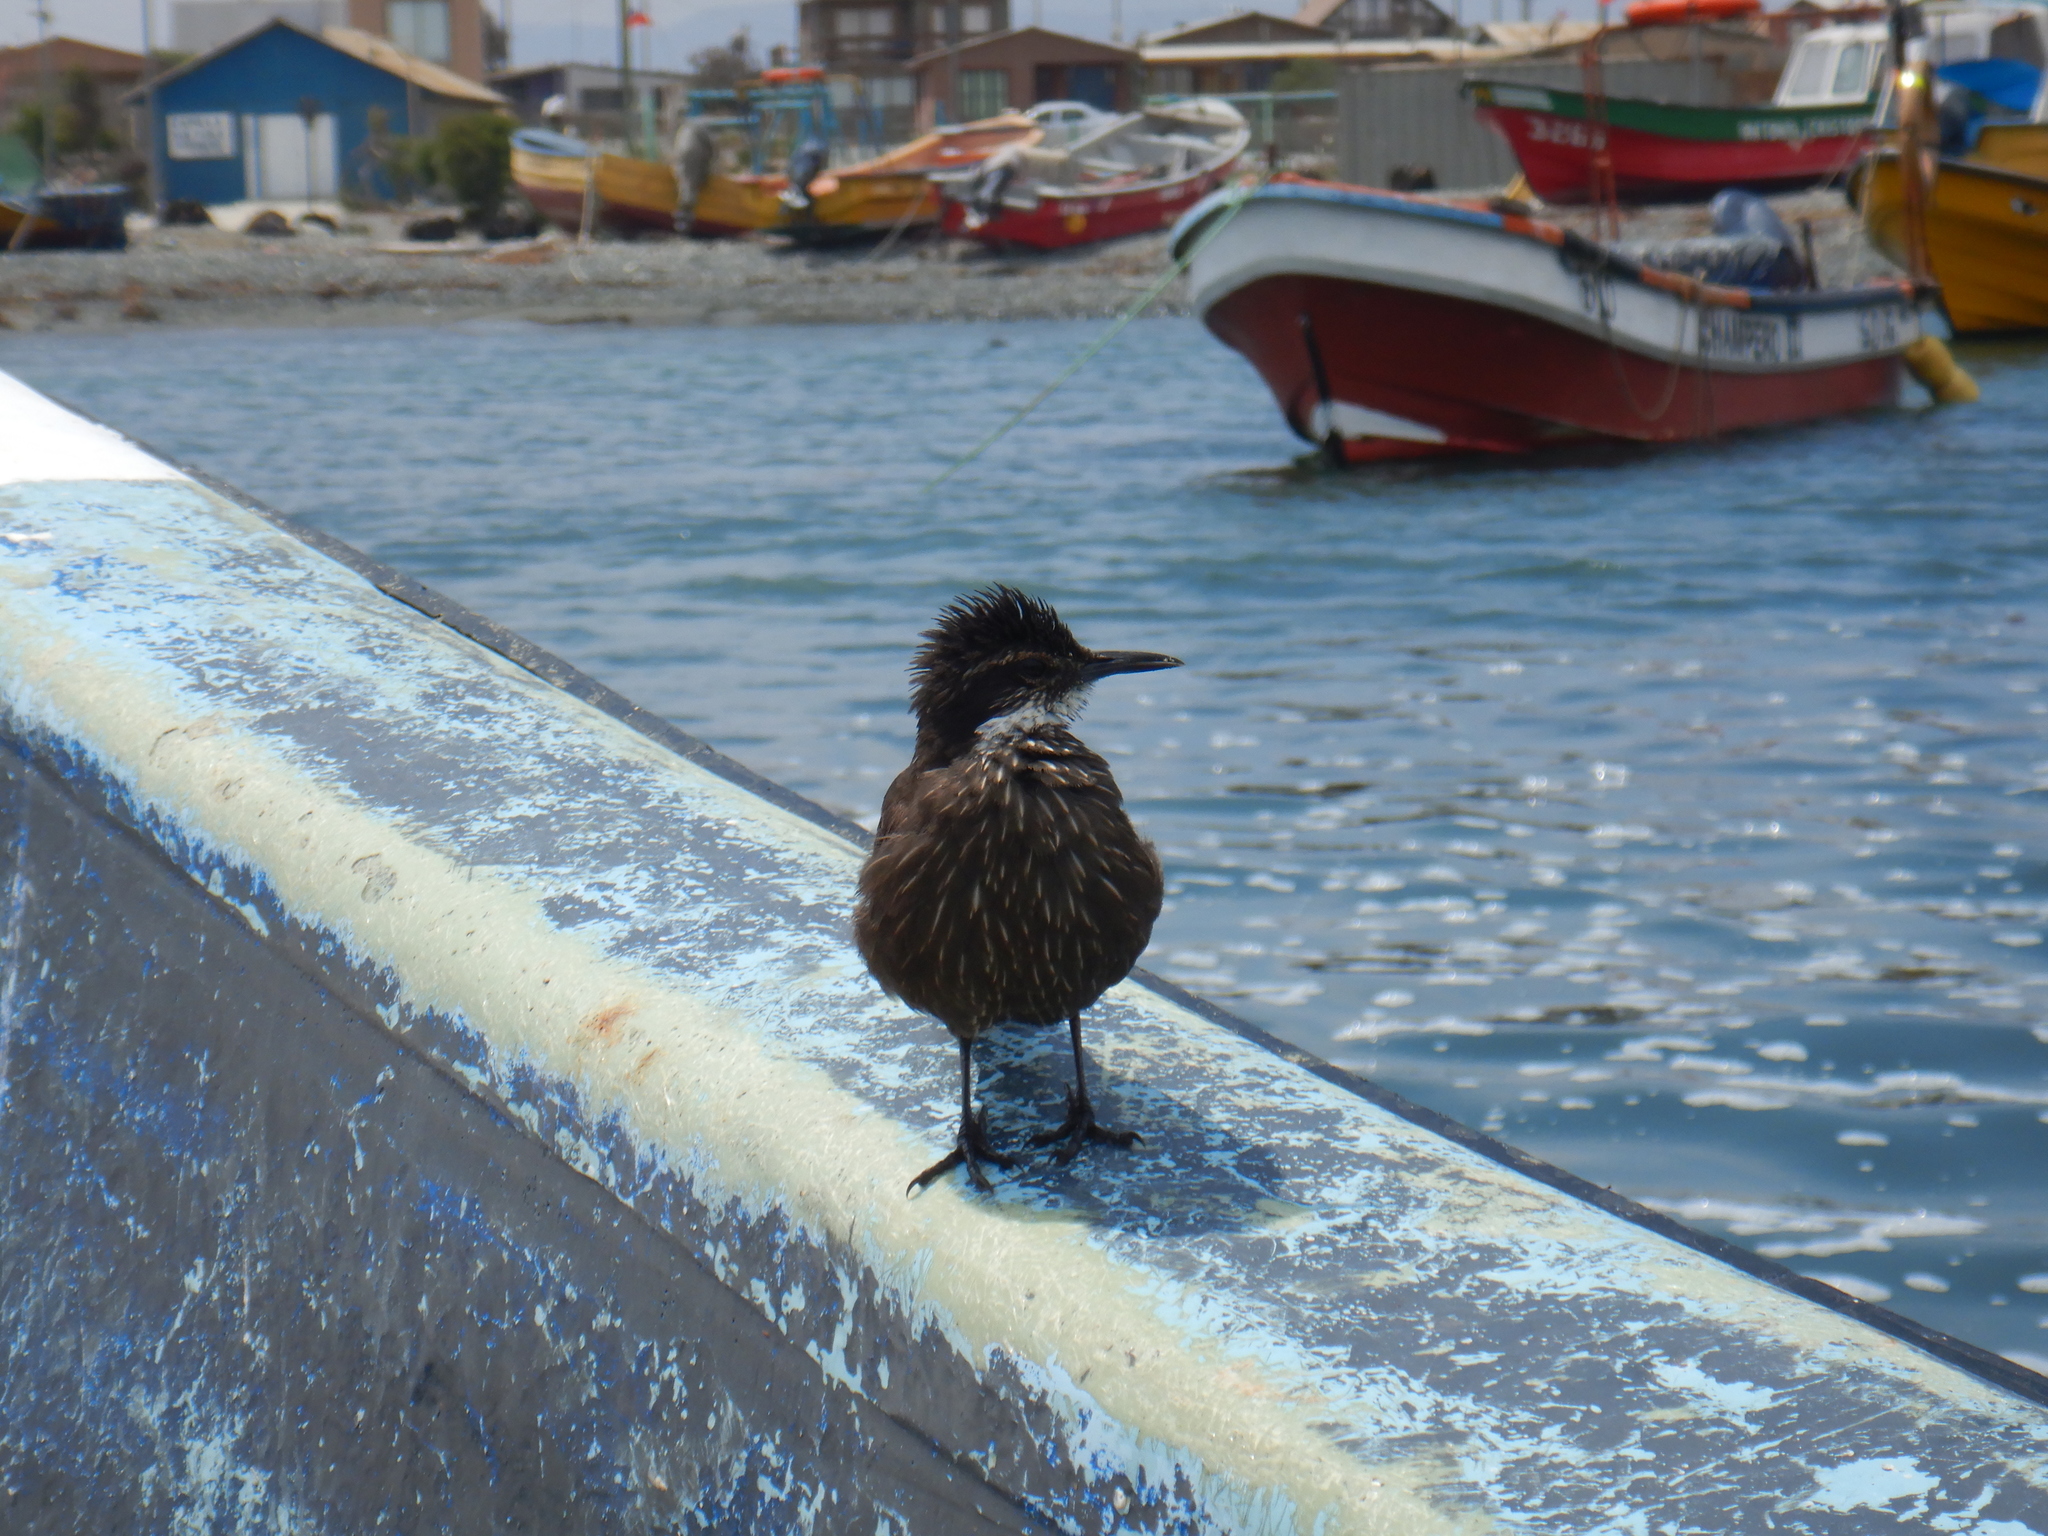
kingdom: Animalia
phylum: Chordata
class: Aves
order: Passeriformes
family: Furnariidae
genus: Cinclodes
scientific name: Cinclodes nigrofumosus
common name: Chilean seaside cinclodes
